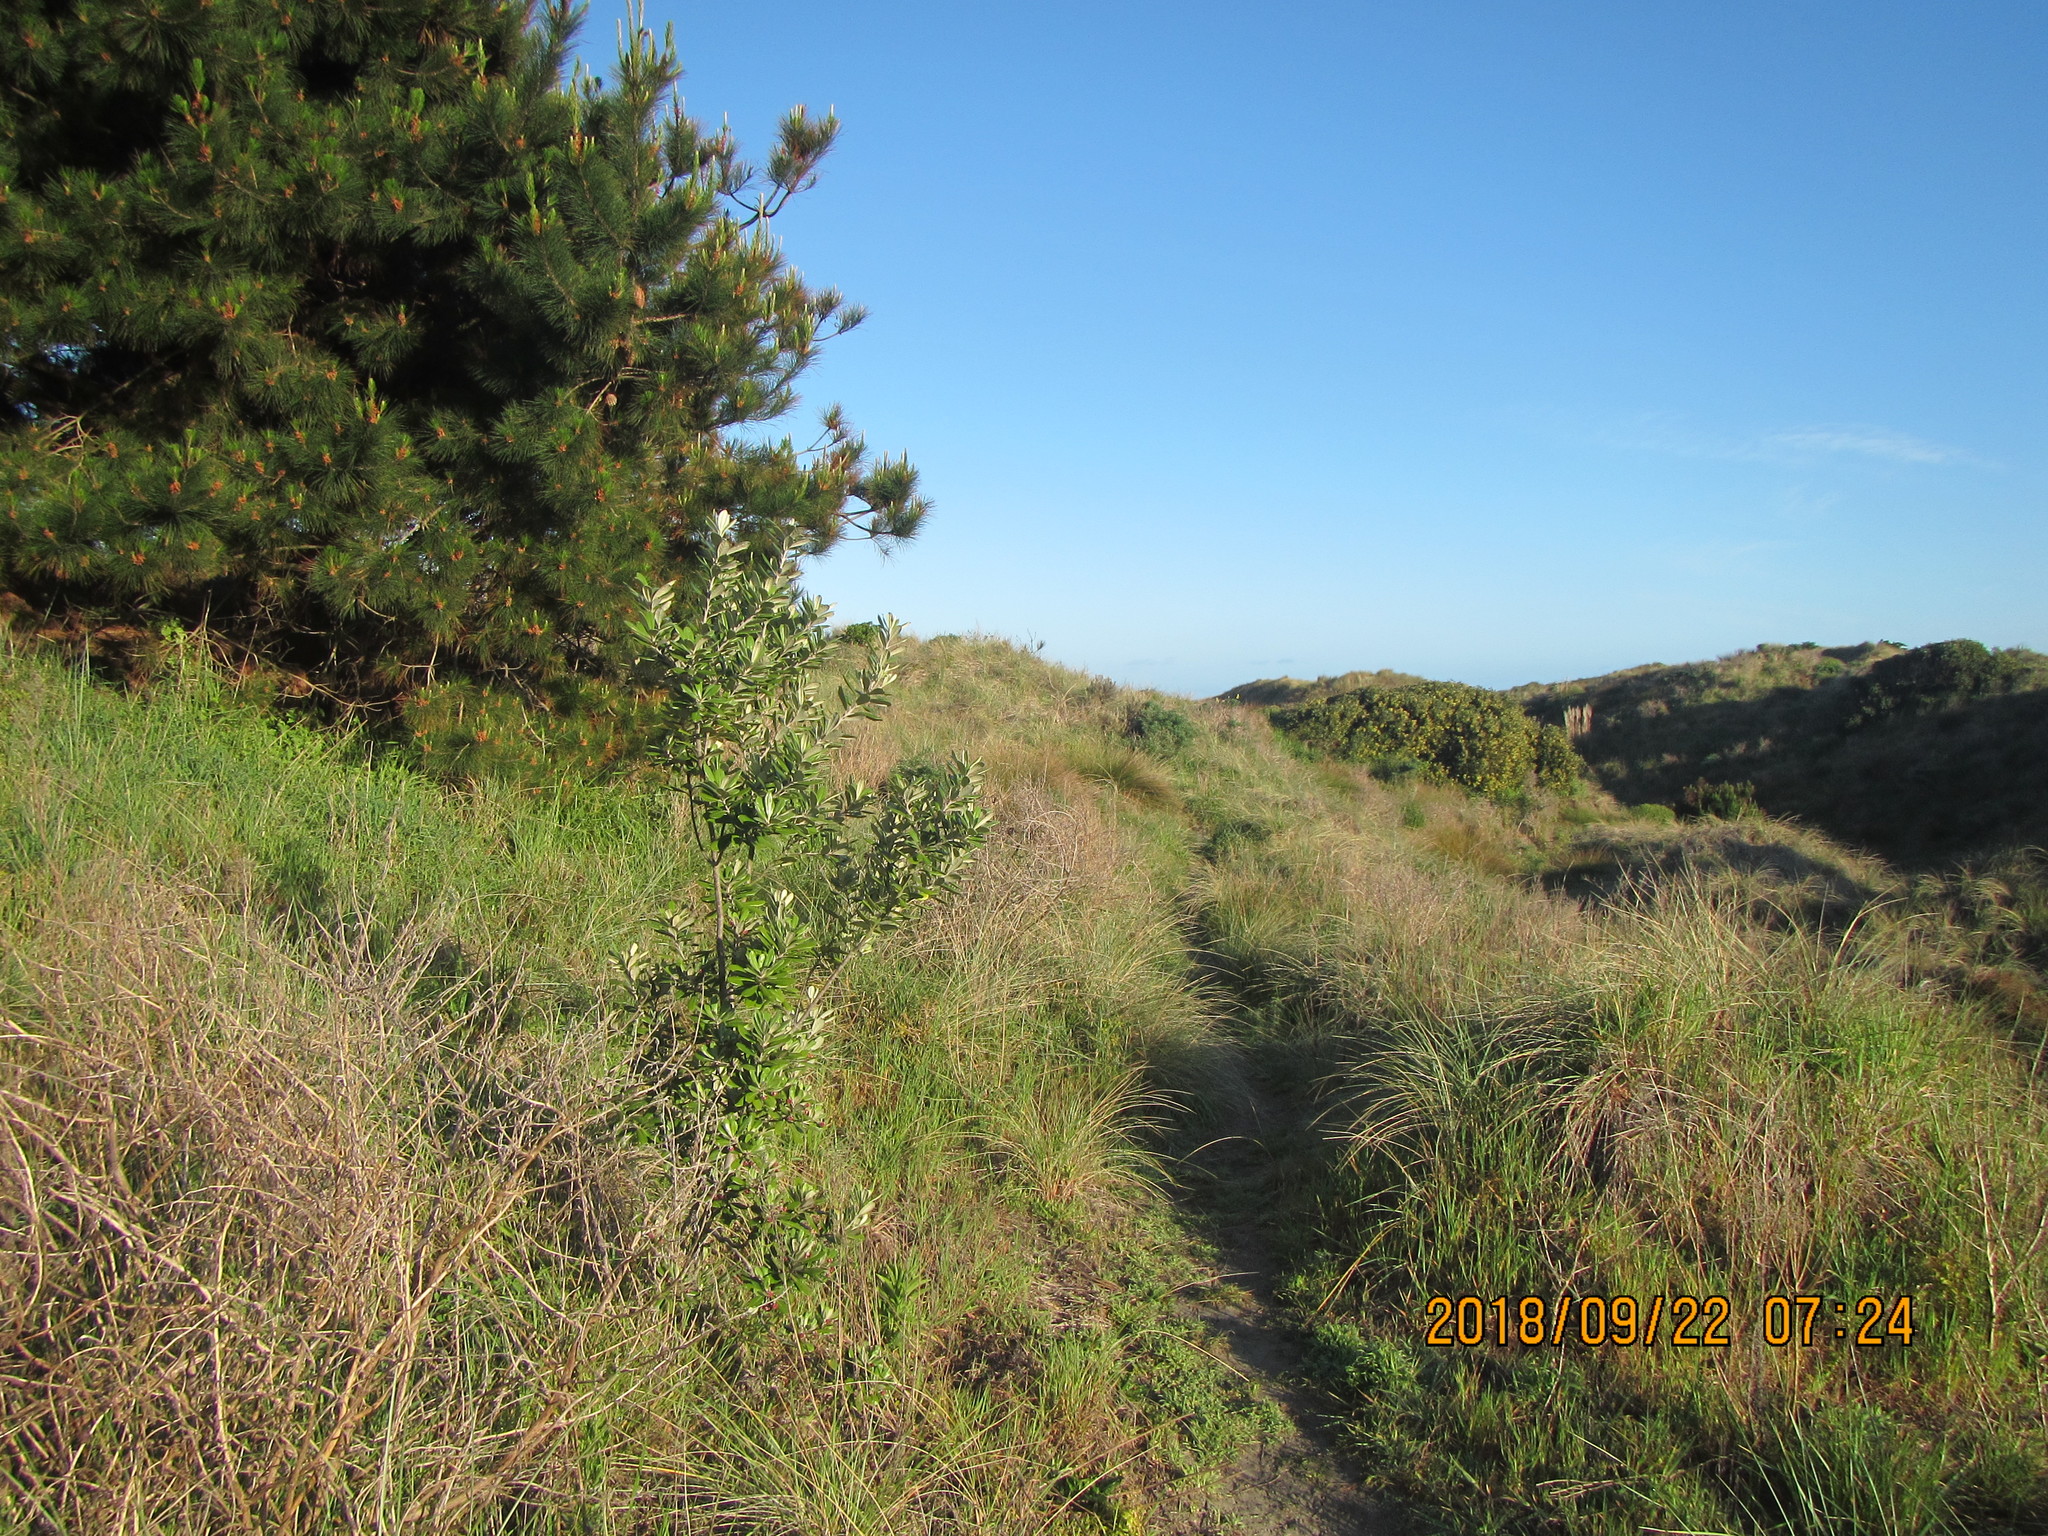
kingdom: Plantae
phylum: Tracheophyta
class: Magnoliopsida
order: Apiales
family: Pittosporaceae
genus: Pittosporum
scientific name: Pittosporum crassifolium
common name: Karo
